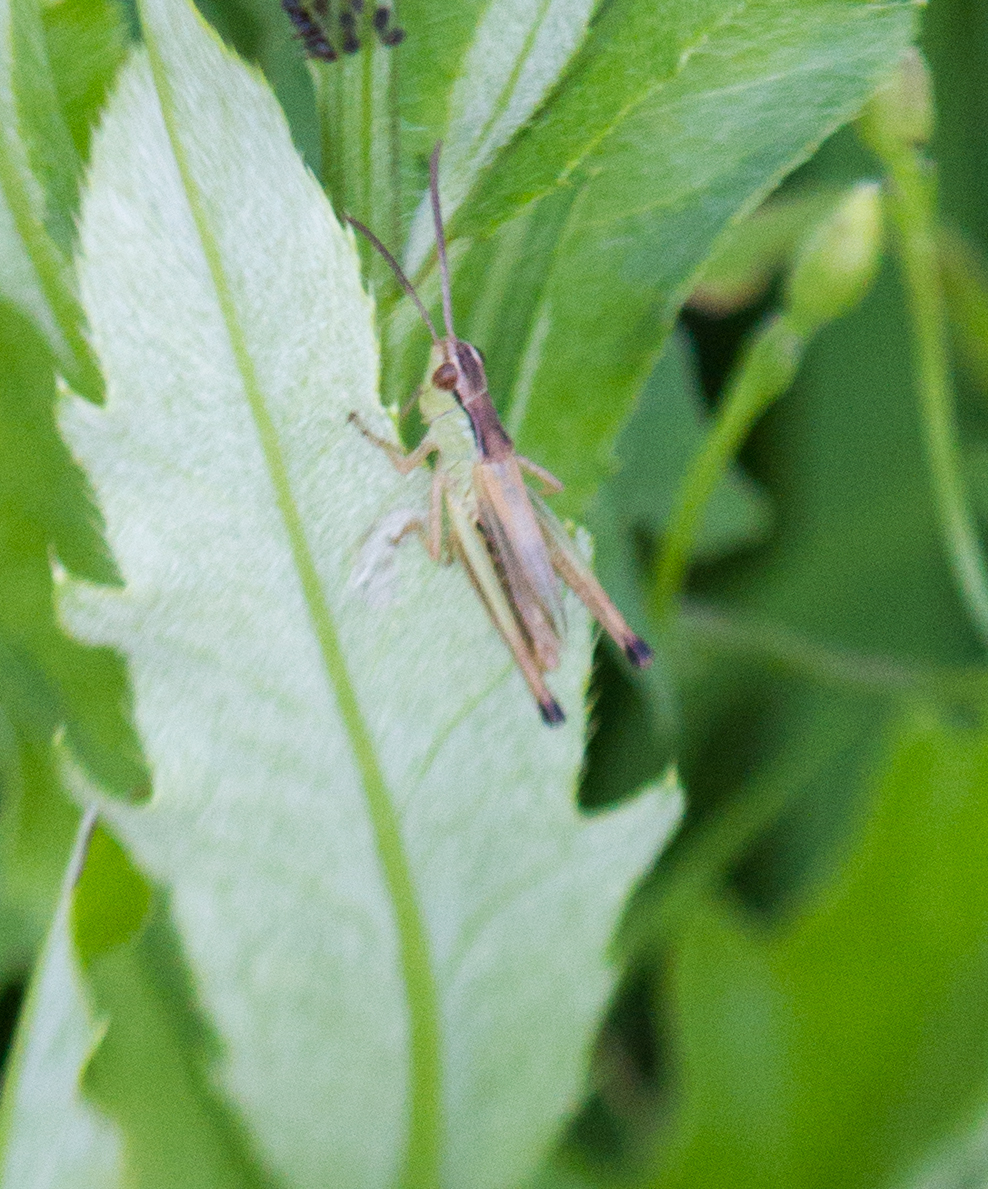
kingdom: Animalia
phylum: Arthropoda
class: Insecta
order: Orthoptera
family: Acrididae
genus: Pseudochorthippus
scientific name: Pseudochorthippus parallelus
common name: Meadow grasshopper
